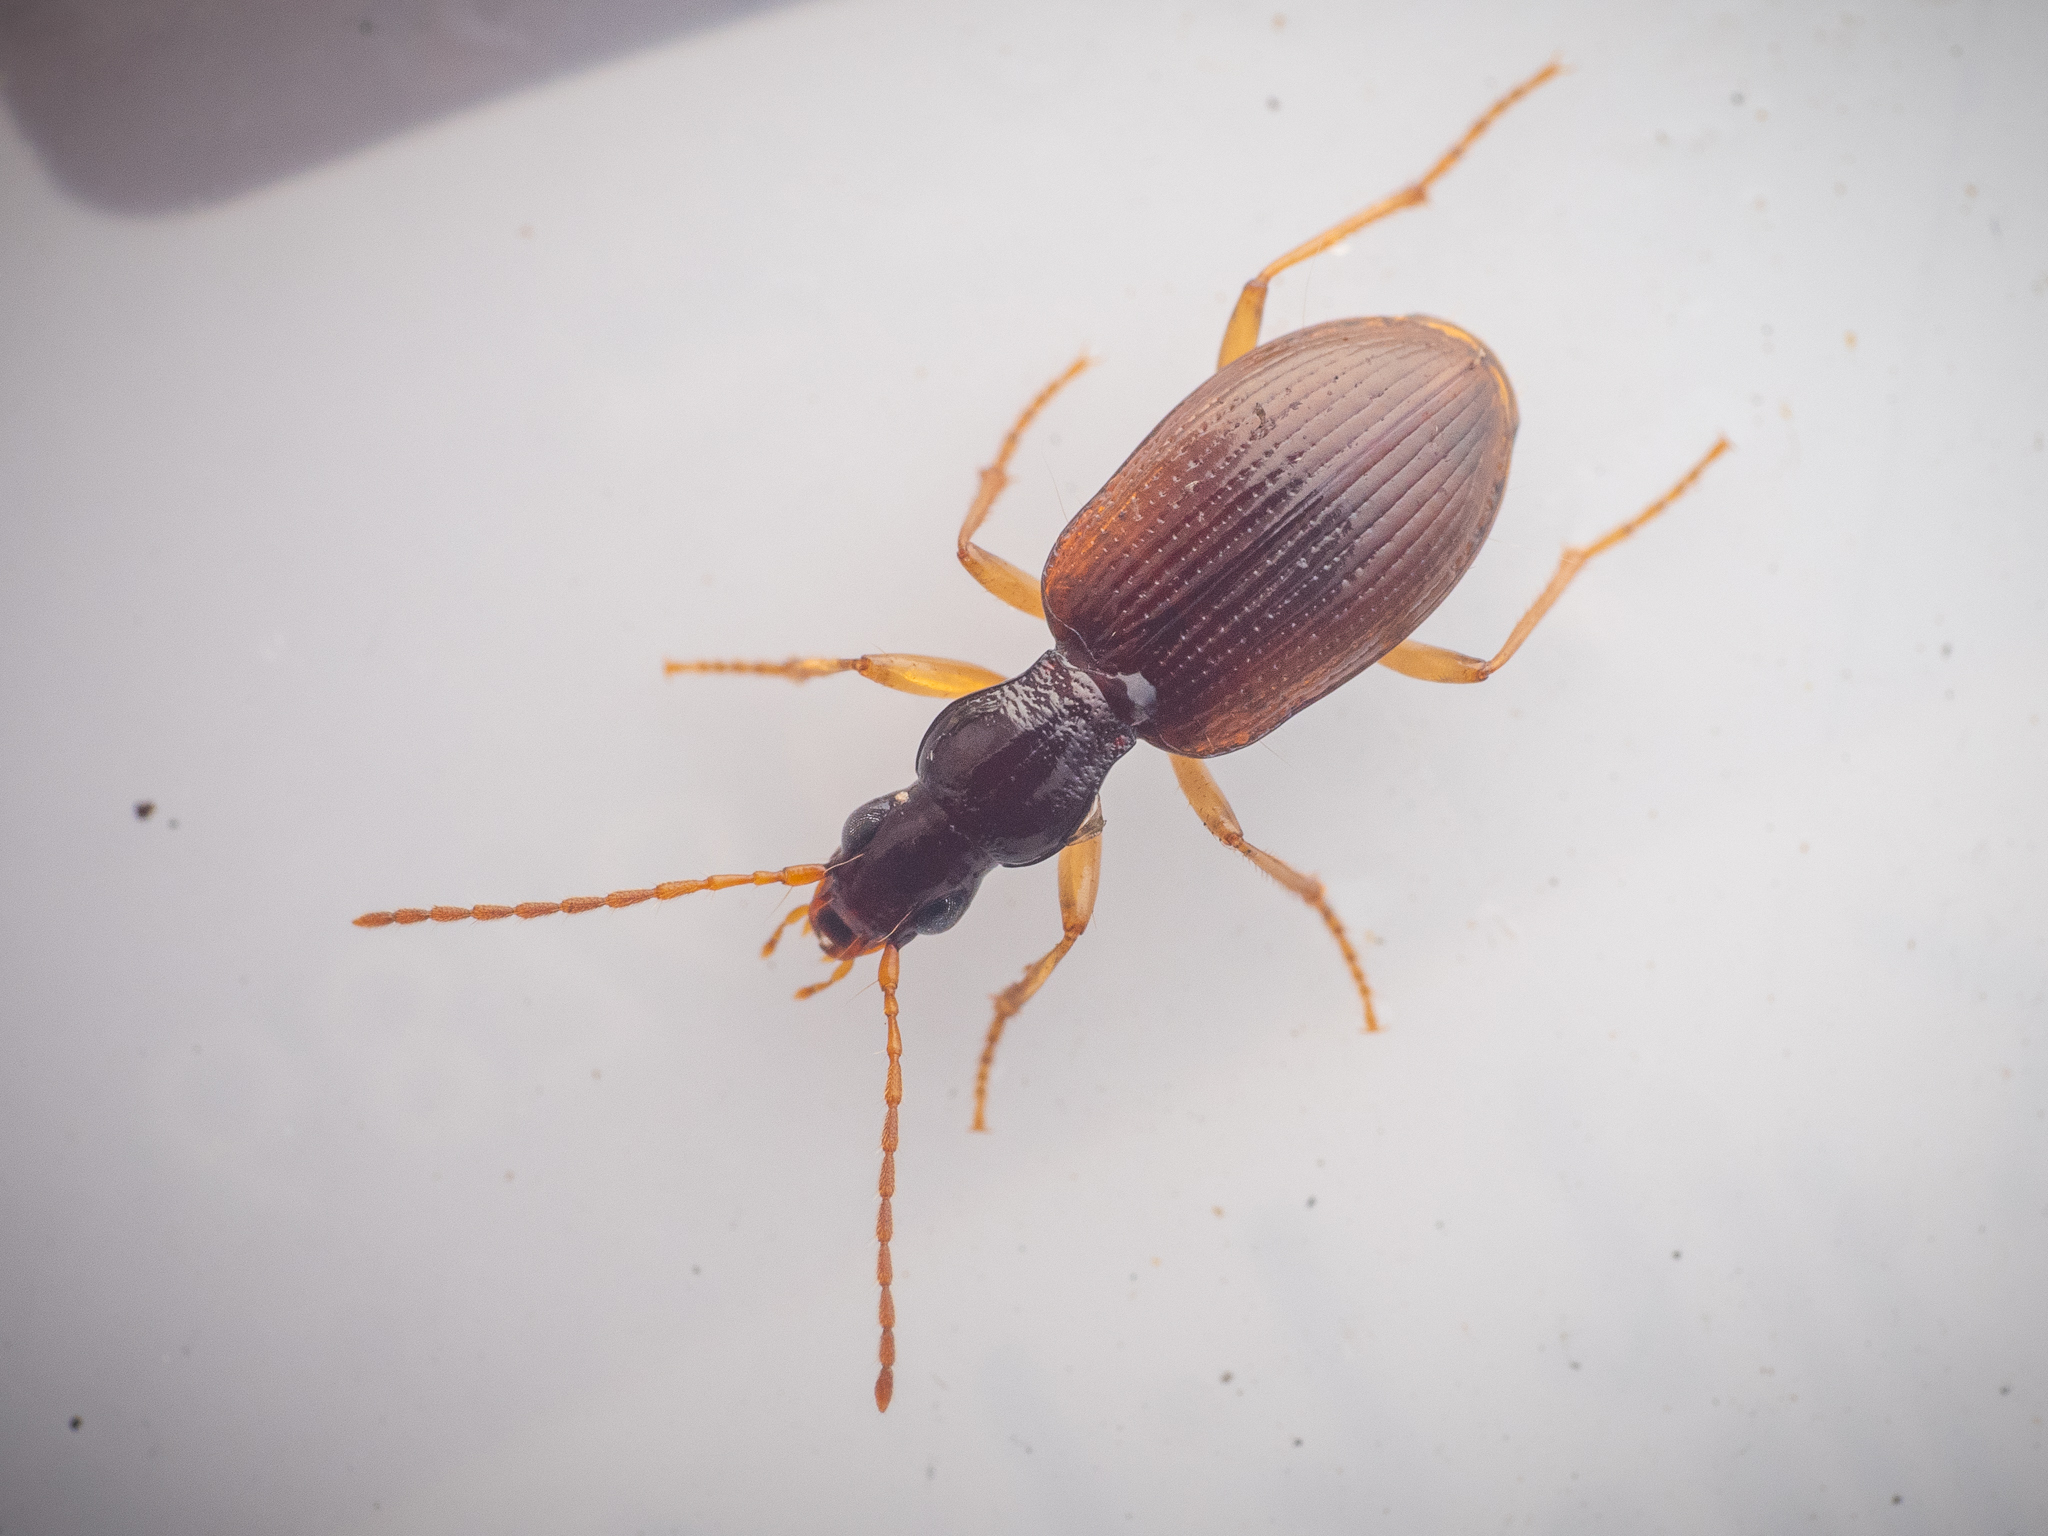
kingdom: Animalia
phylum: Arthropoda
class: Insecta
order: Coleoptera
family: Carabidae
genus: Oxypselaphus
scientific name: Oxypselaphus obscurus
